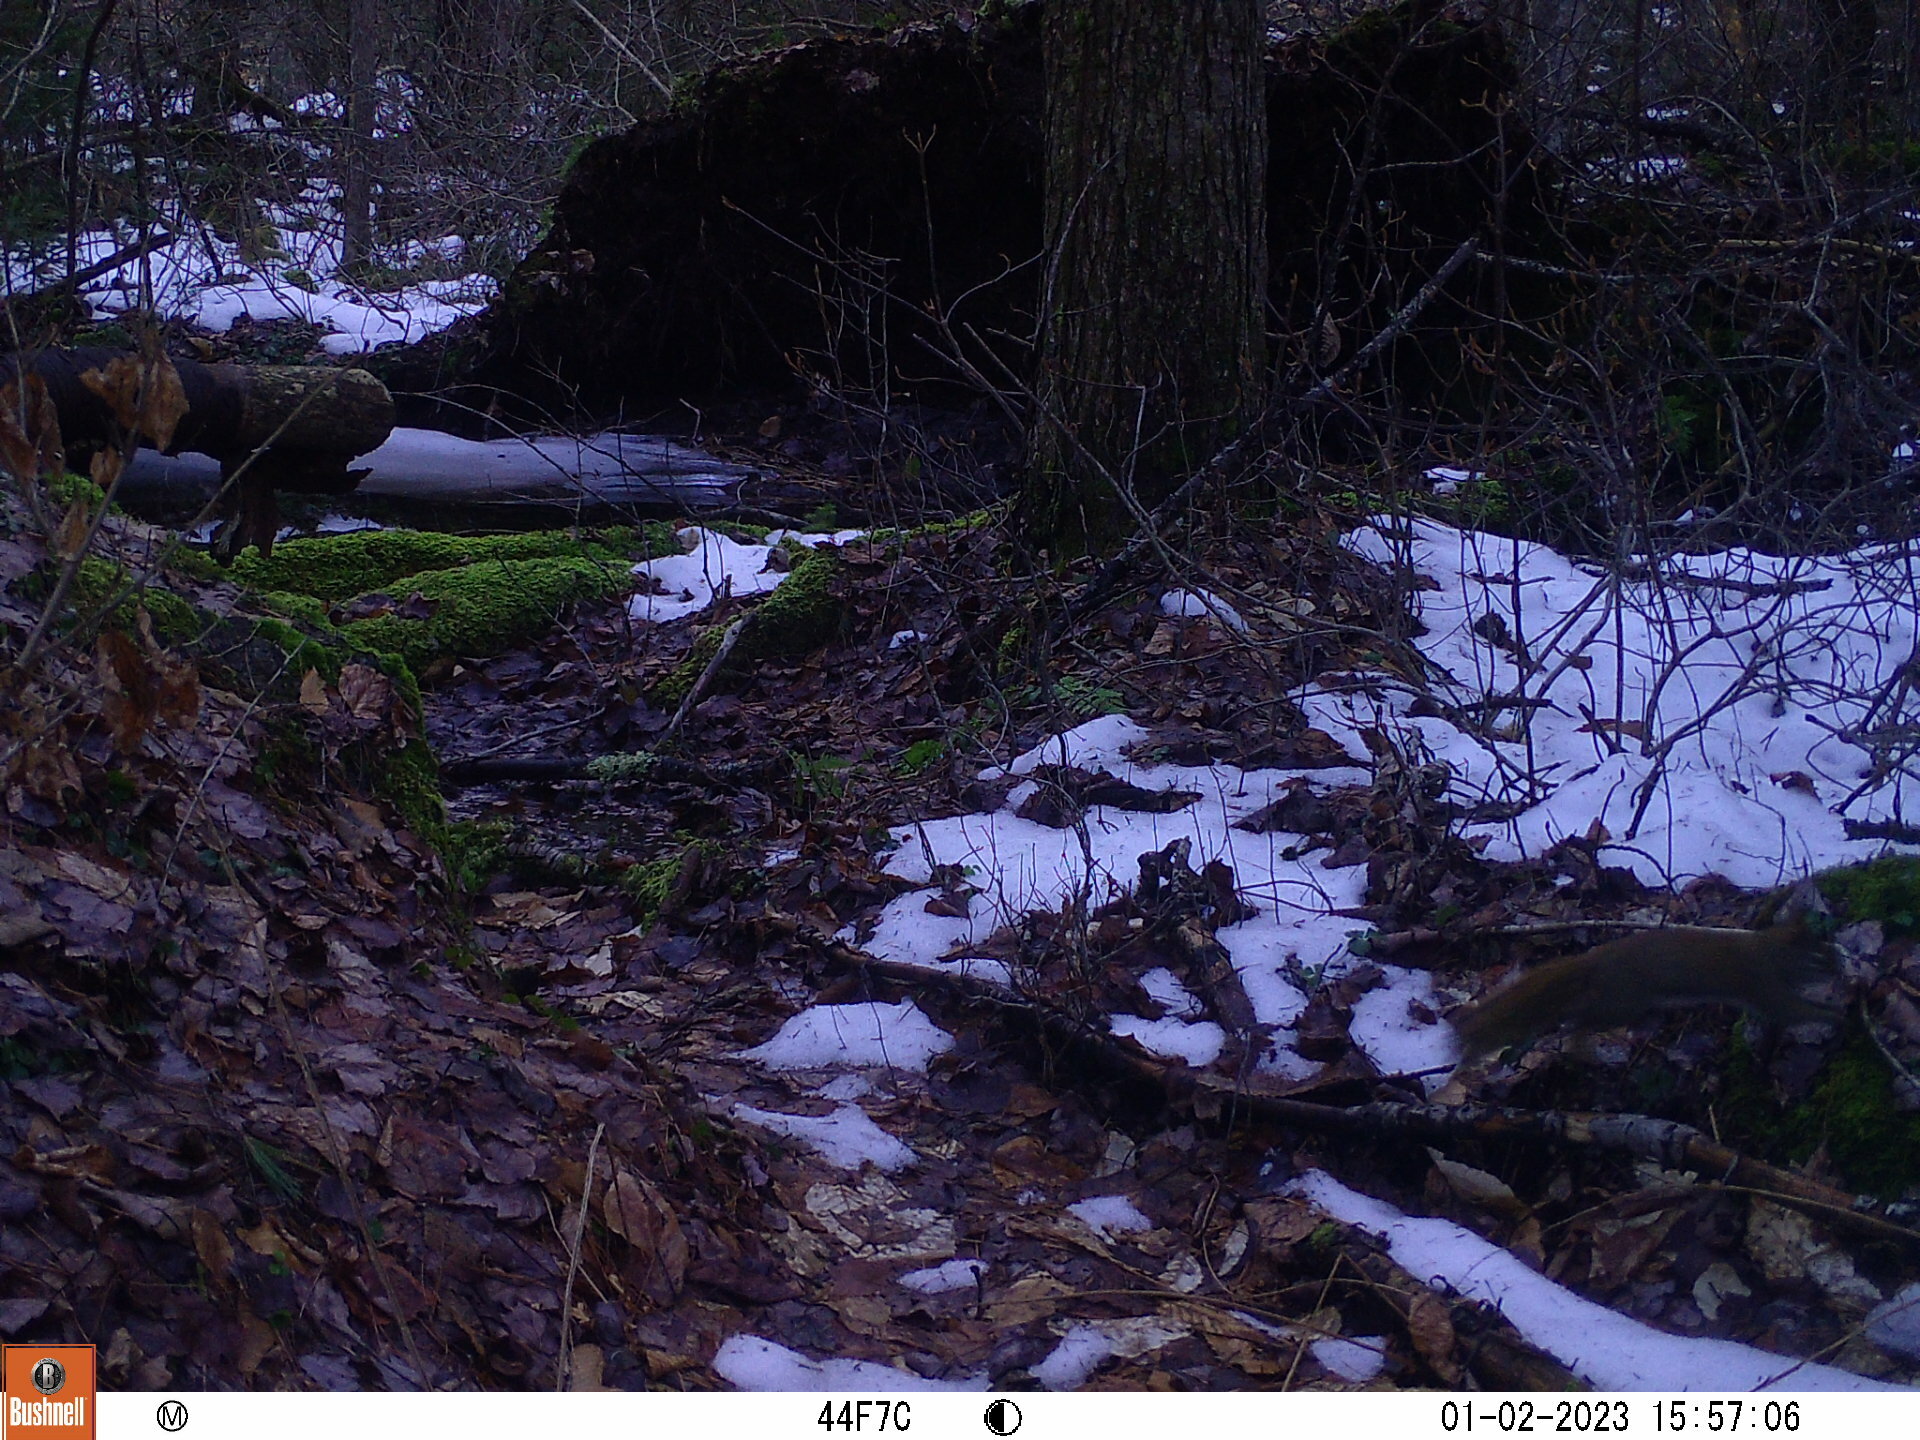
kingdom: Animalia
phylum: Chordata
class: Mammalia
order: Rodentia
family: Sciuridae
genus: Tamiasciurus
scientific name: Tamiasciurus hudsonicus
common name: Red squirrel
